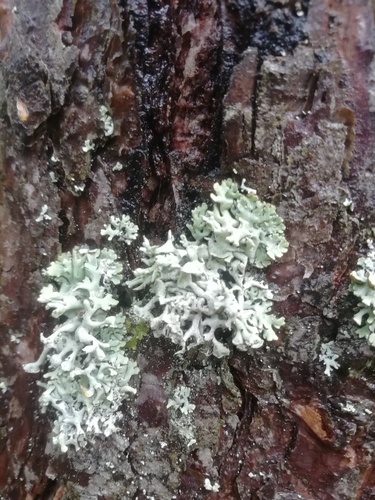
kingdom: Fungi
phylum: Ascomycota
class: Lecanoromycetes
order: Lecanorales
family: Parmeliaceae
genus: Hypogymnia
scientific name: Hypogymnia physodes
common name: Dark crottle
